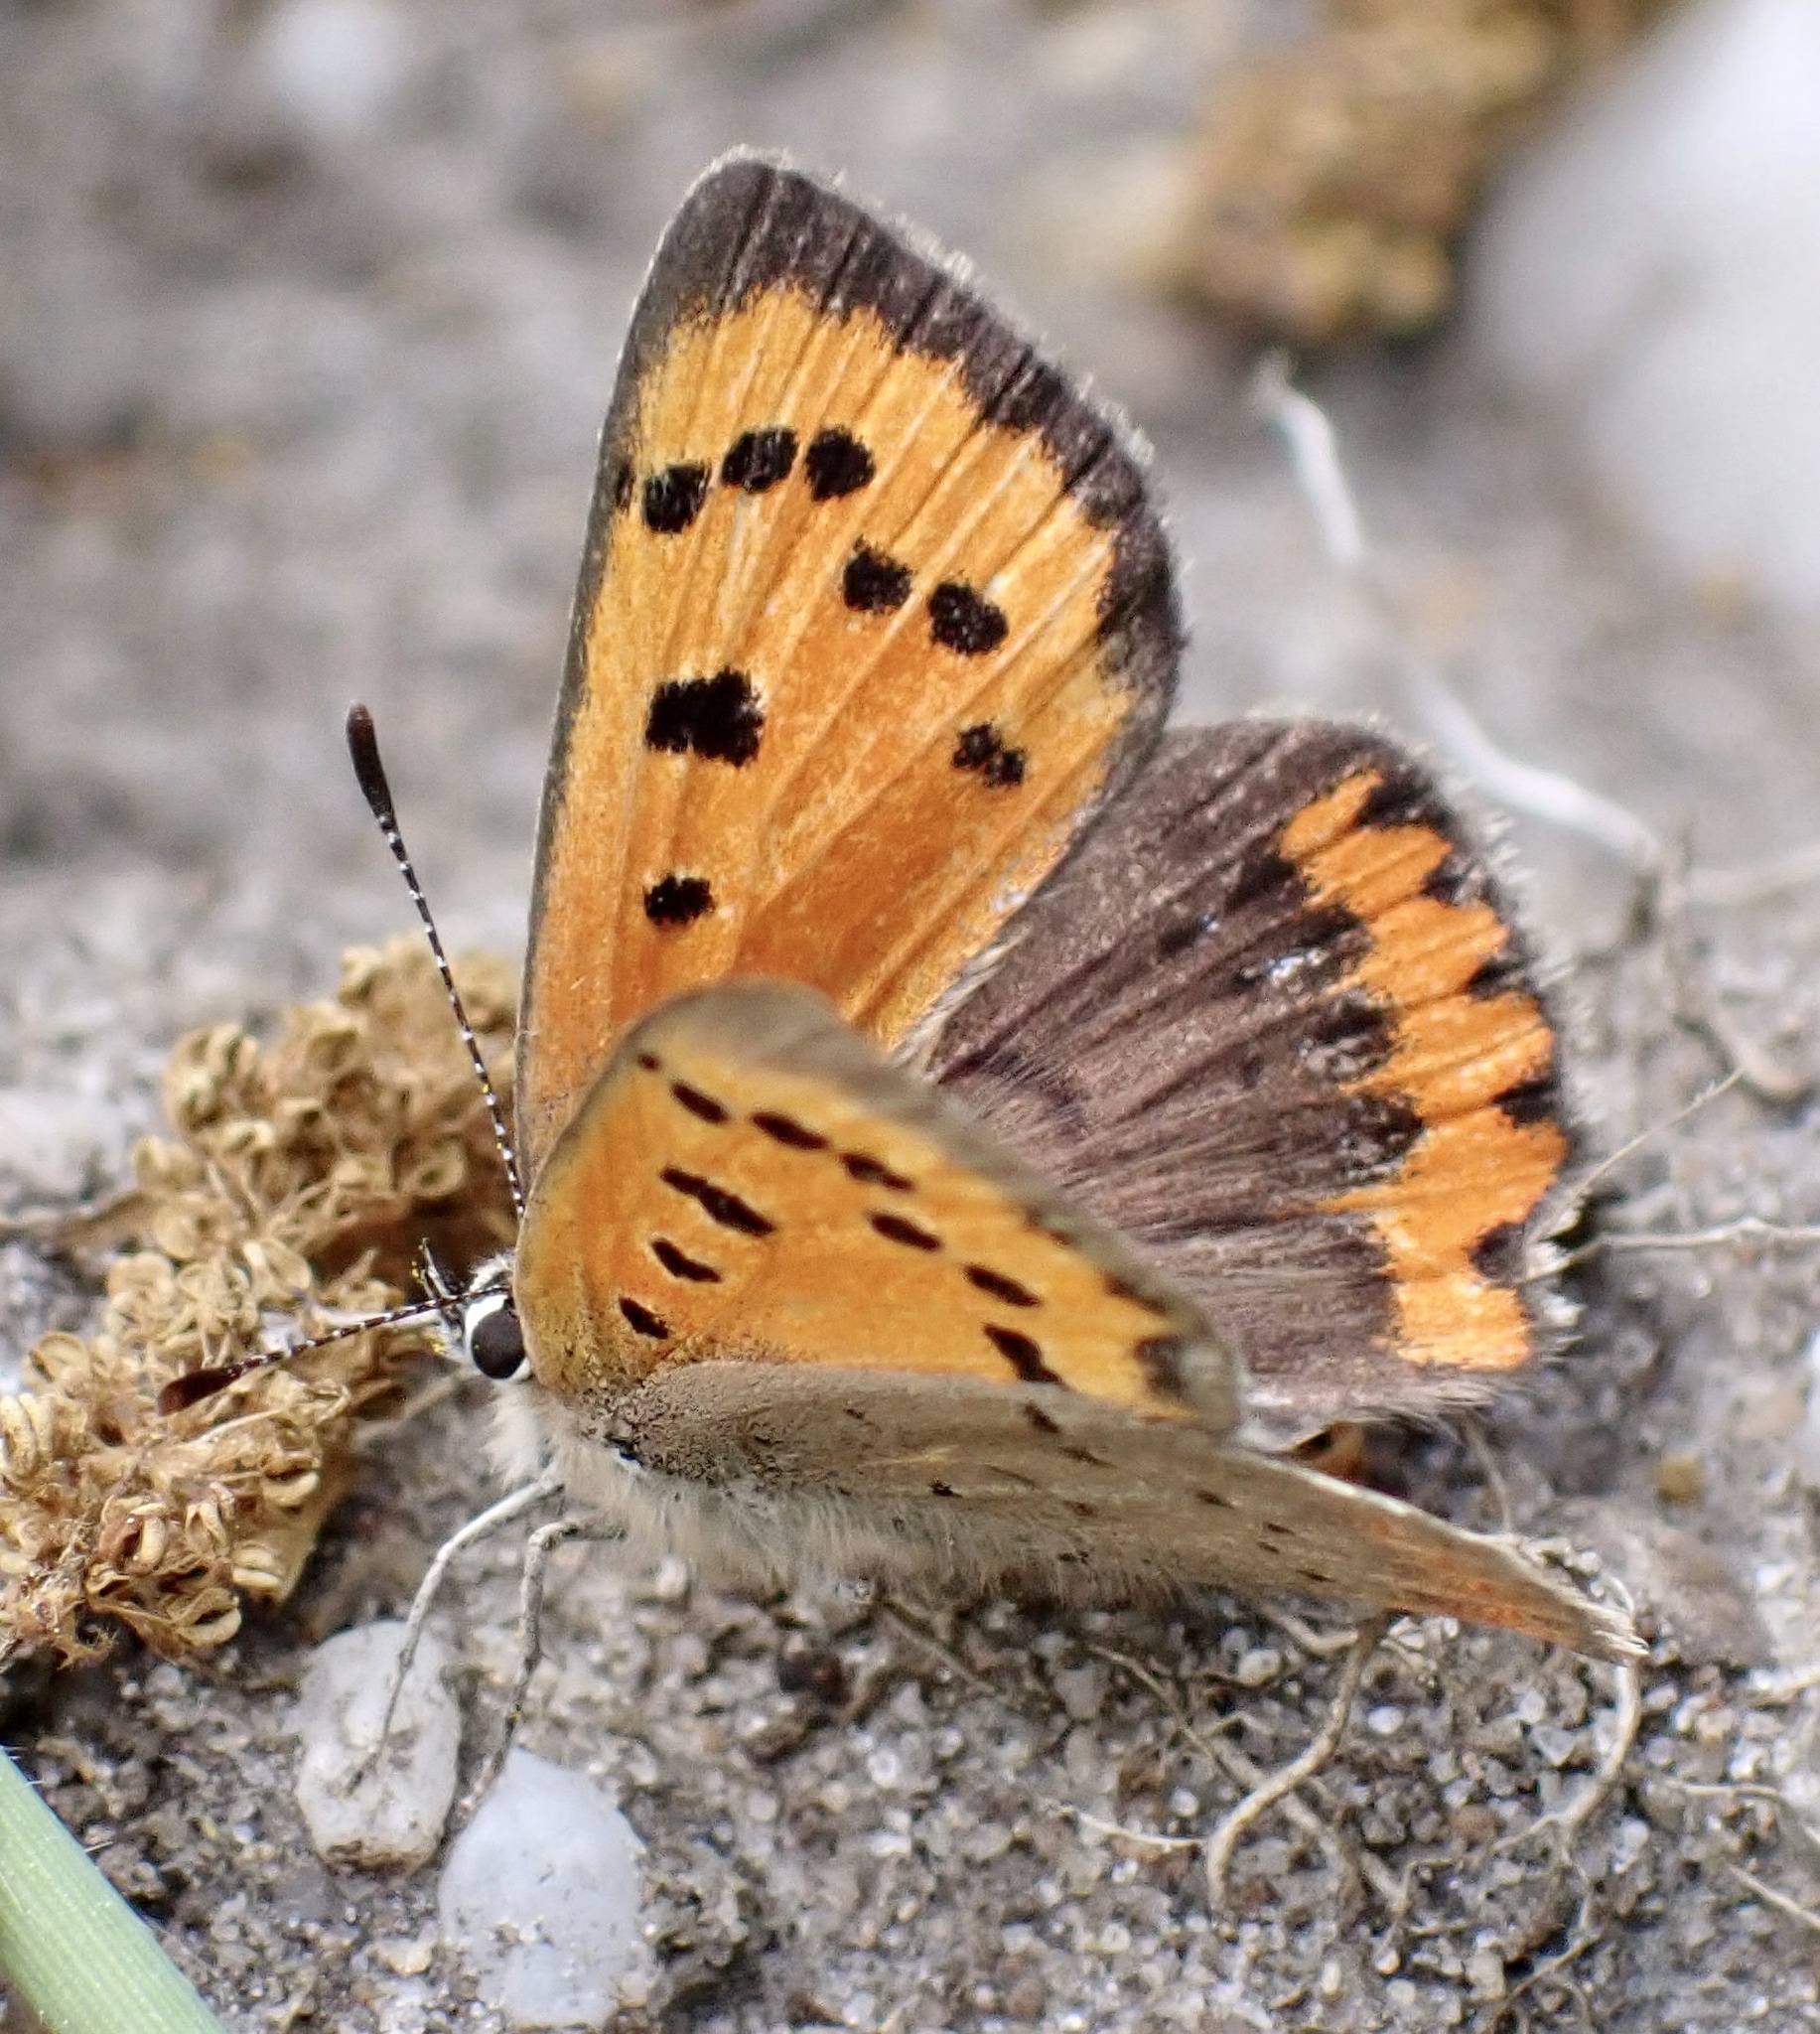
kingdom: Animalia
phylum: Arthropoda
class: Insecta
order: Lepidoptera
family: Lycaenidae
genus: Lycaena
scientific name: Lycaena phlaeas
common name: Small copper
